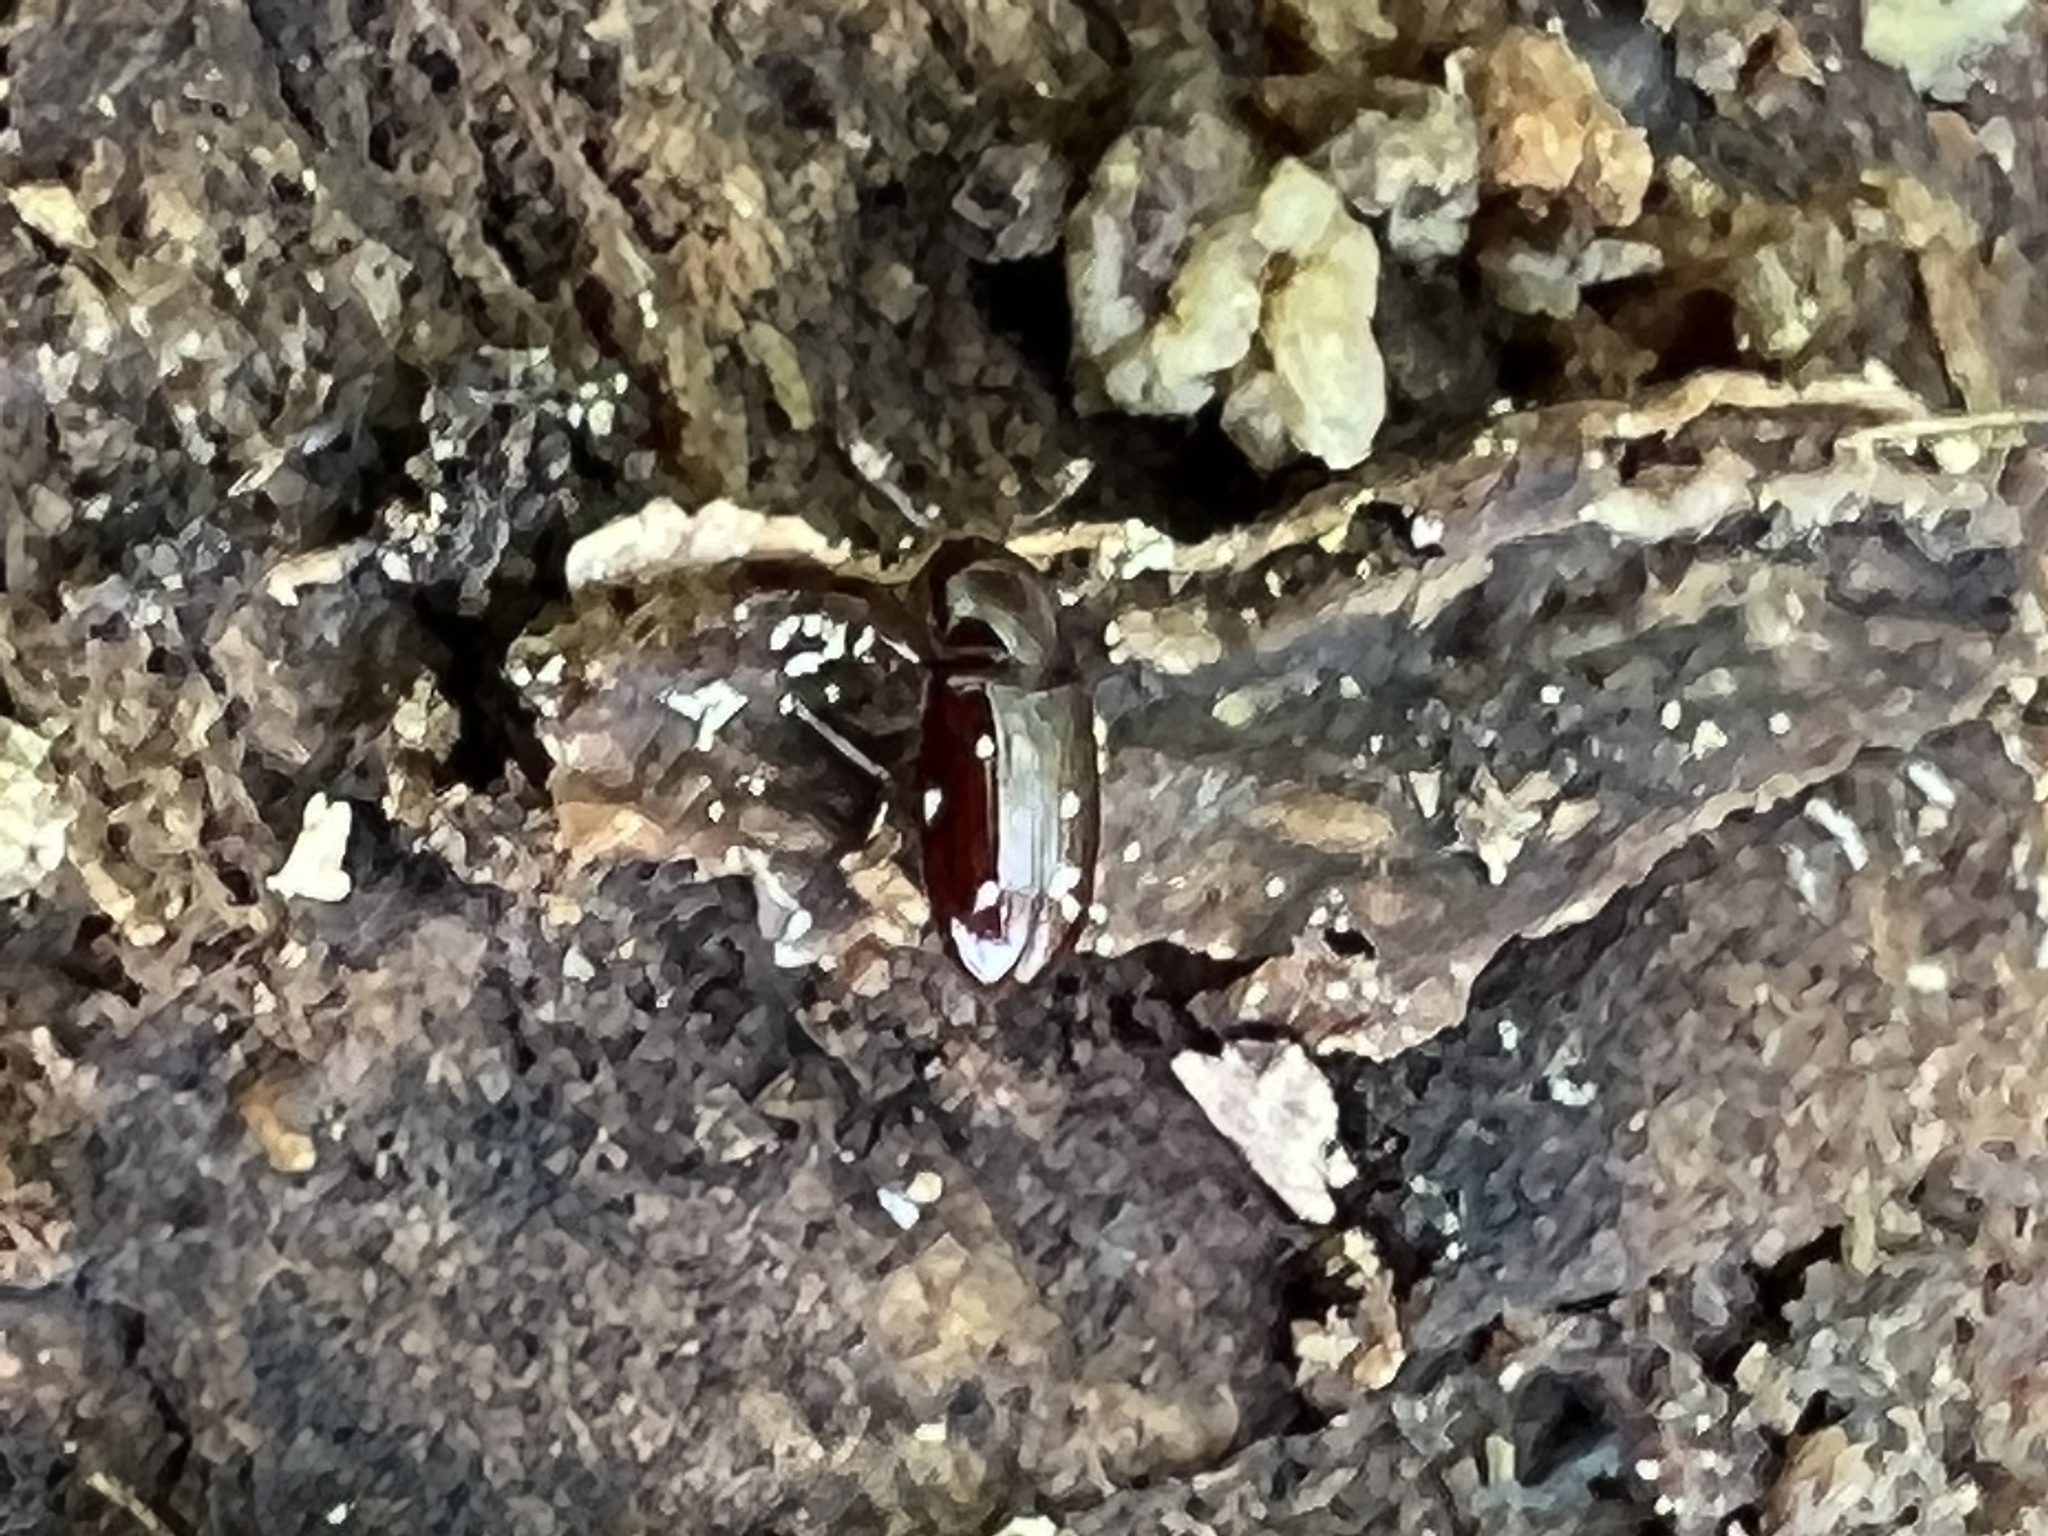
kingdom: Animalia
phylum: Arthropoda
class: Insecta
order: Coleoptera
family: Cerylonidae
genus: Philothermus
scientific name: Philothermus glabriculus
